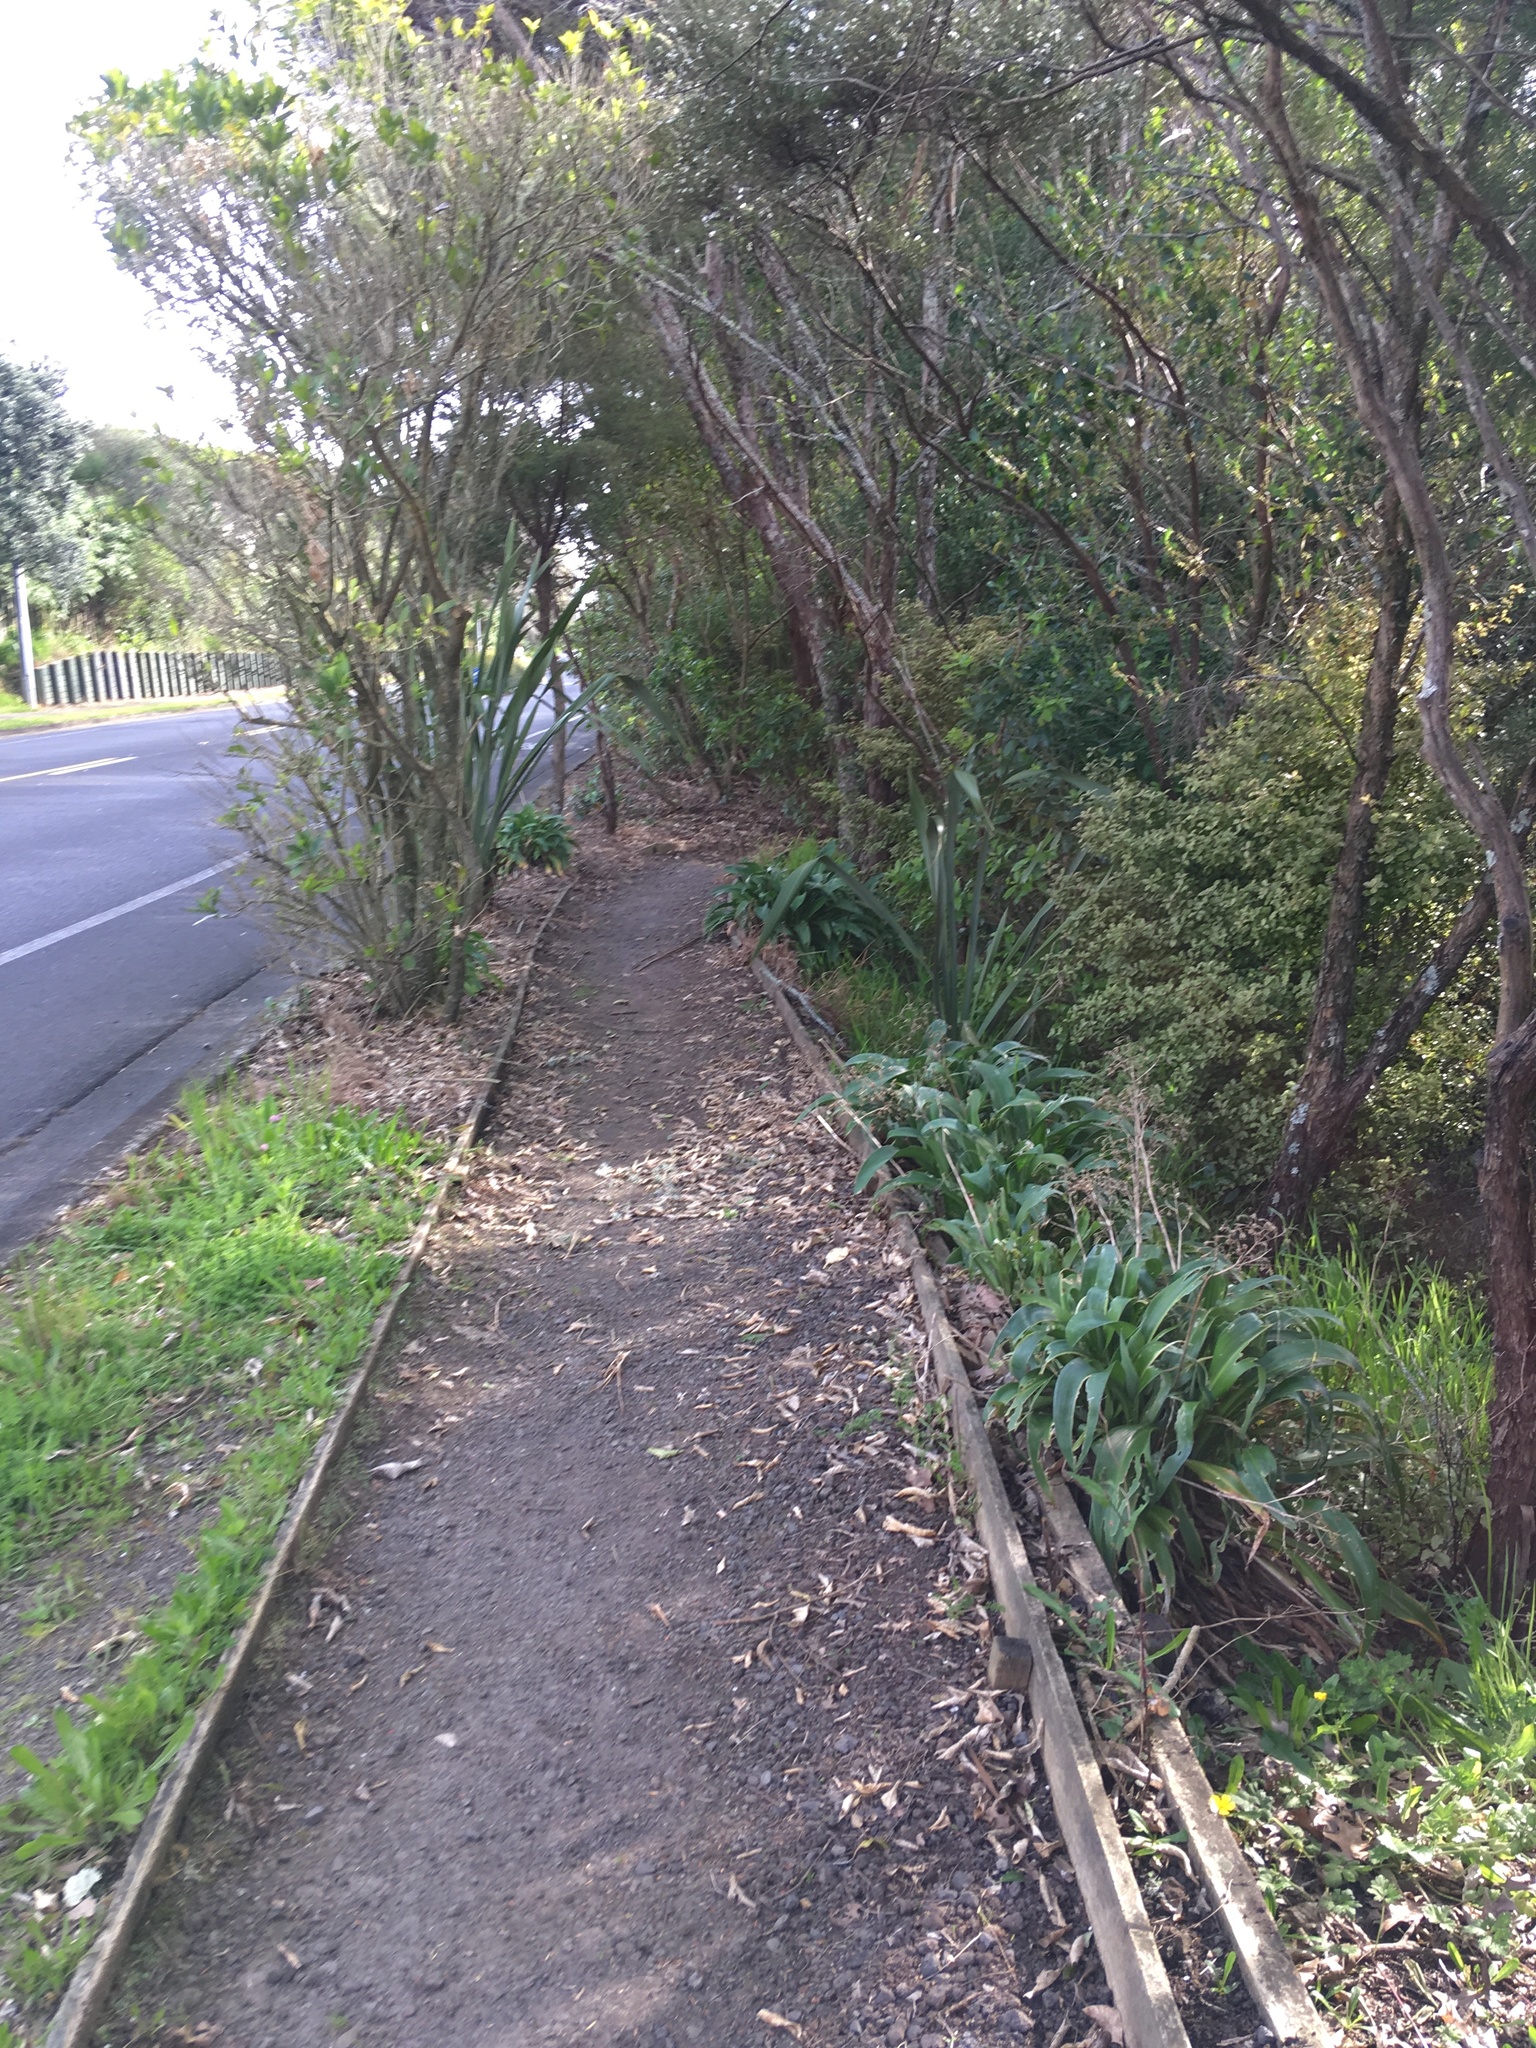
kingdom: Plantae
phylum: Tracheophyta
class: Liliopsida
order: Asparagales
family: Asparagaceae
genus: Arthropodium
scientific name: Arthropodium cirratum
